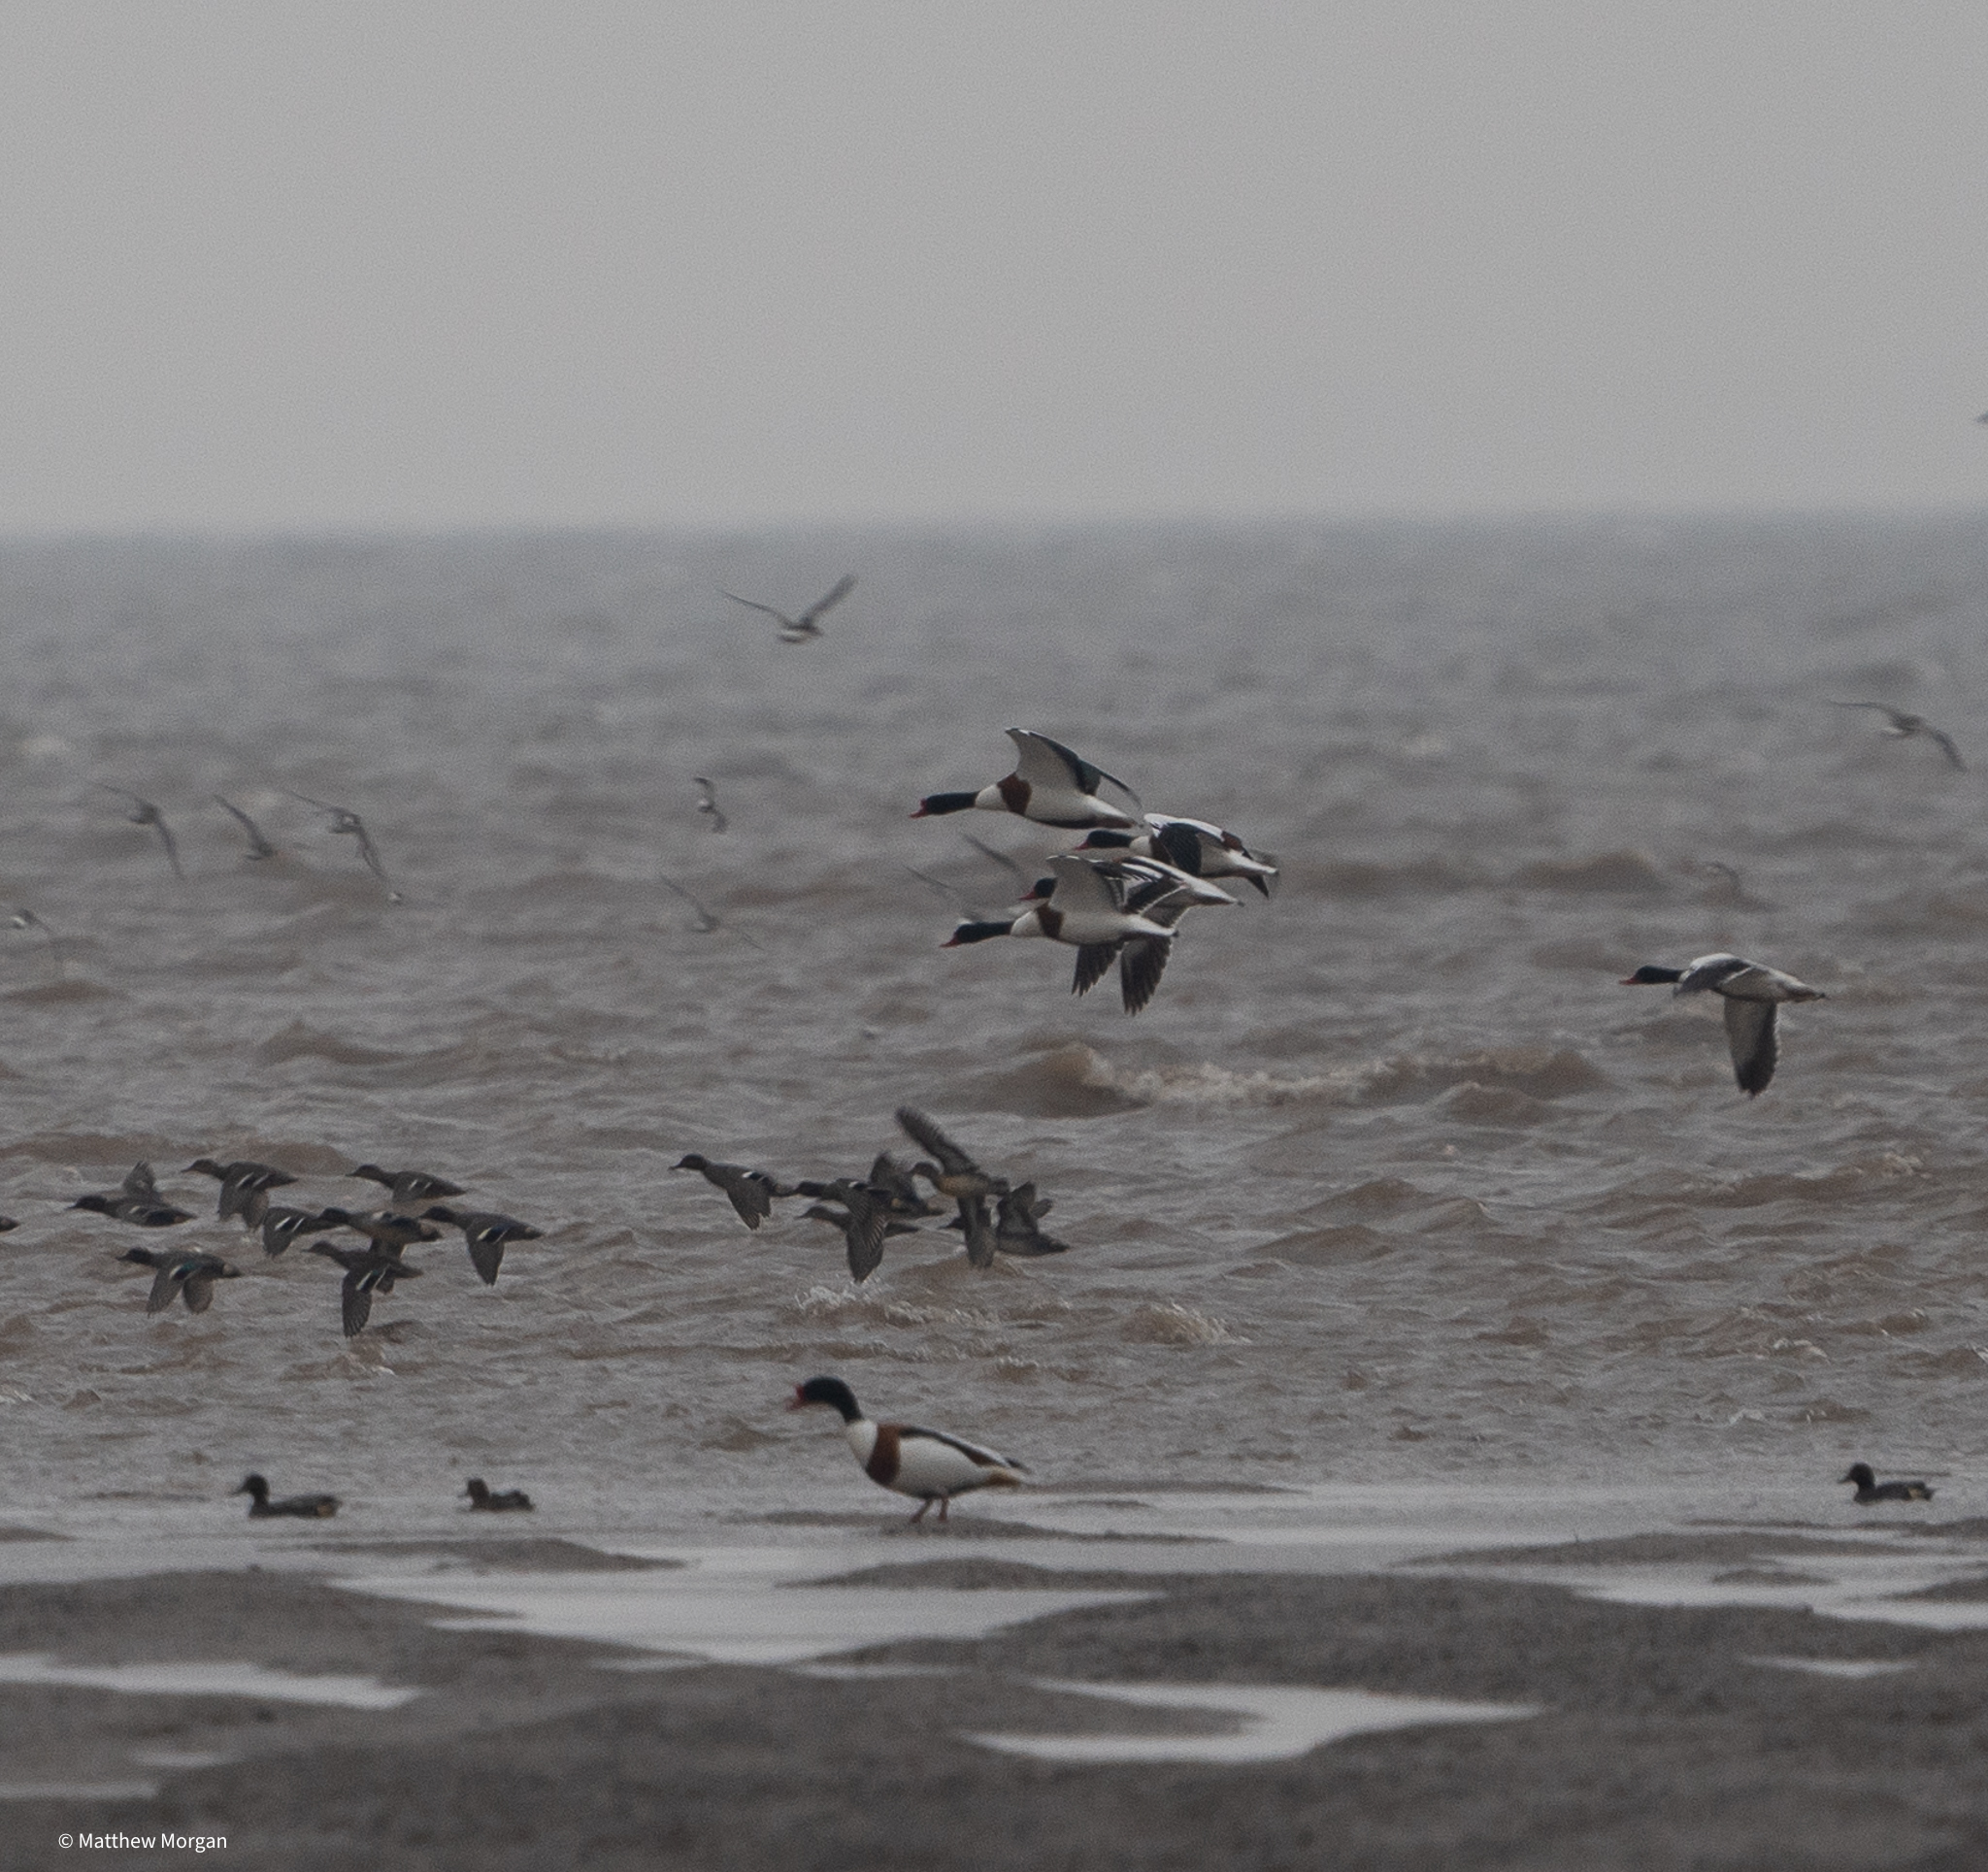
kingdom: Animalia
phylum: Chordata
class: Aves
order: Anseriformes
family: Anatidae
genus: Tadorna
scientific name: Tadorna tadorna
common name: Common shelduck
